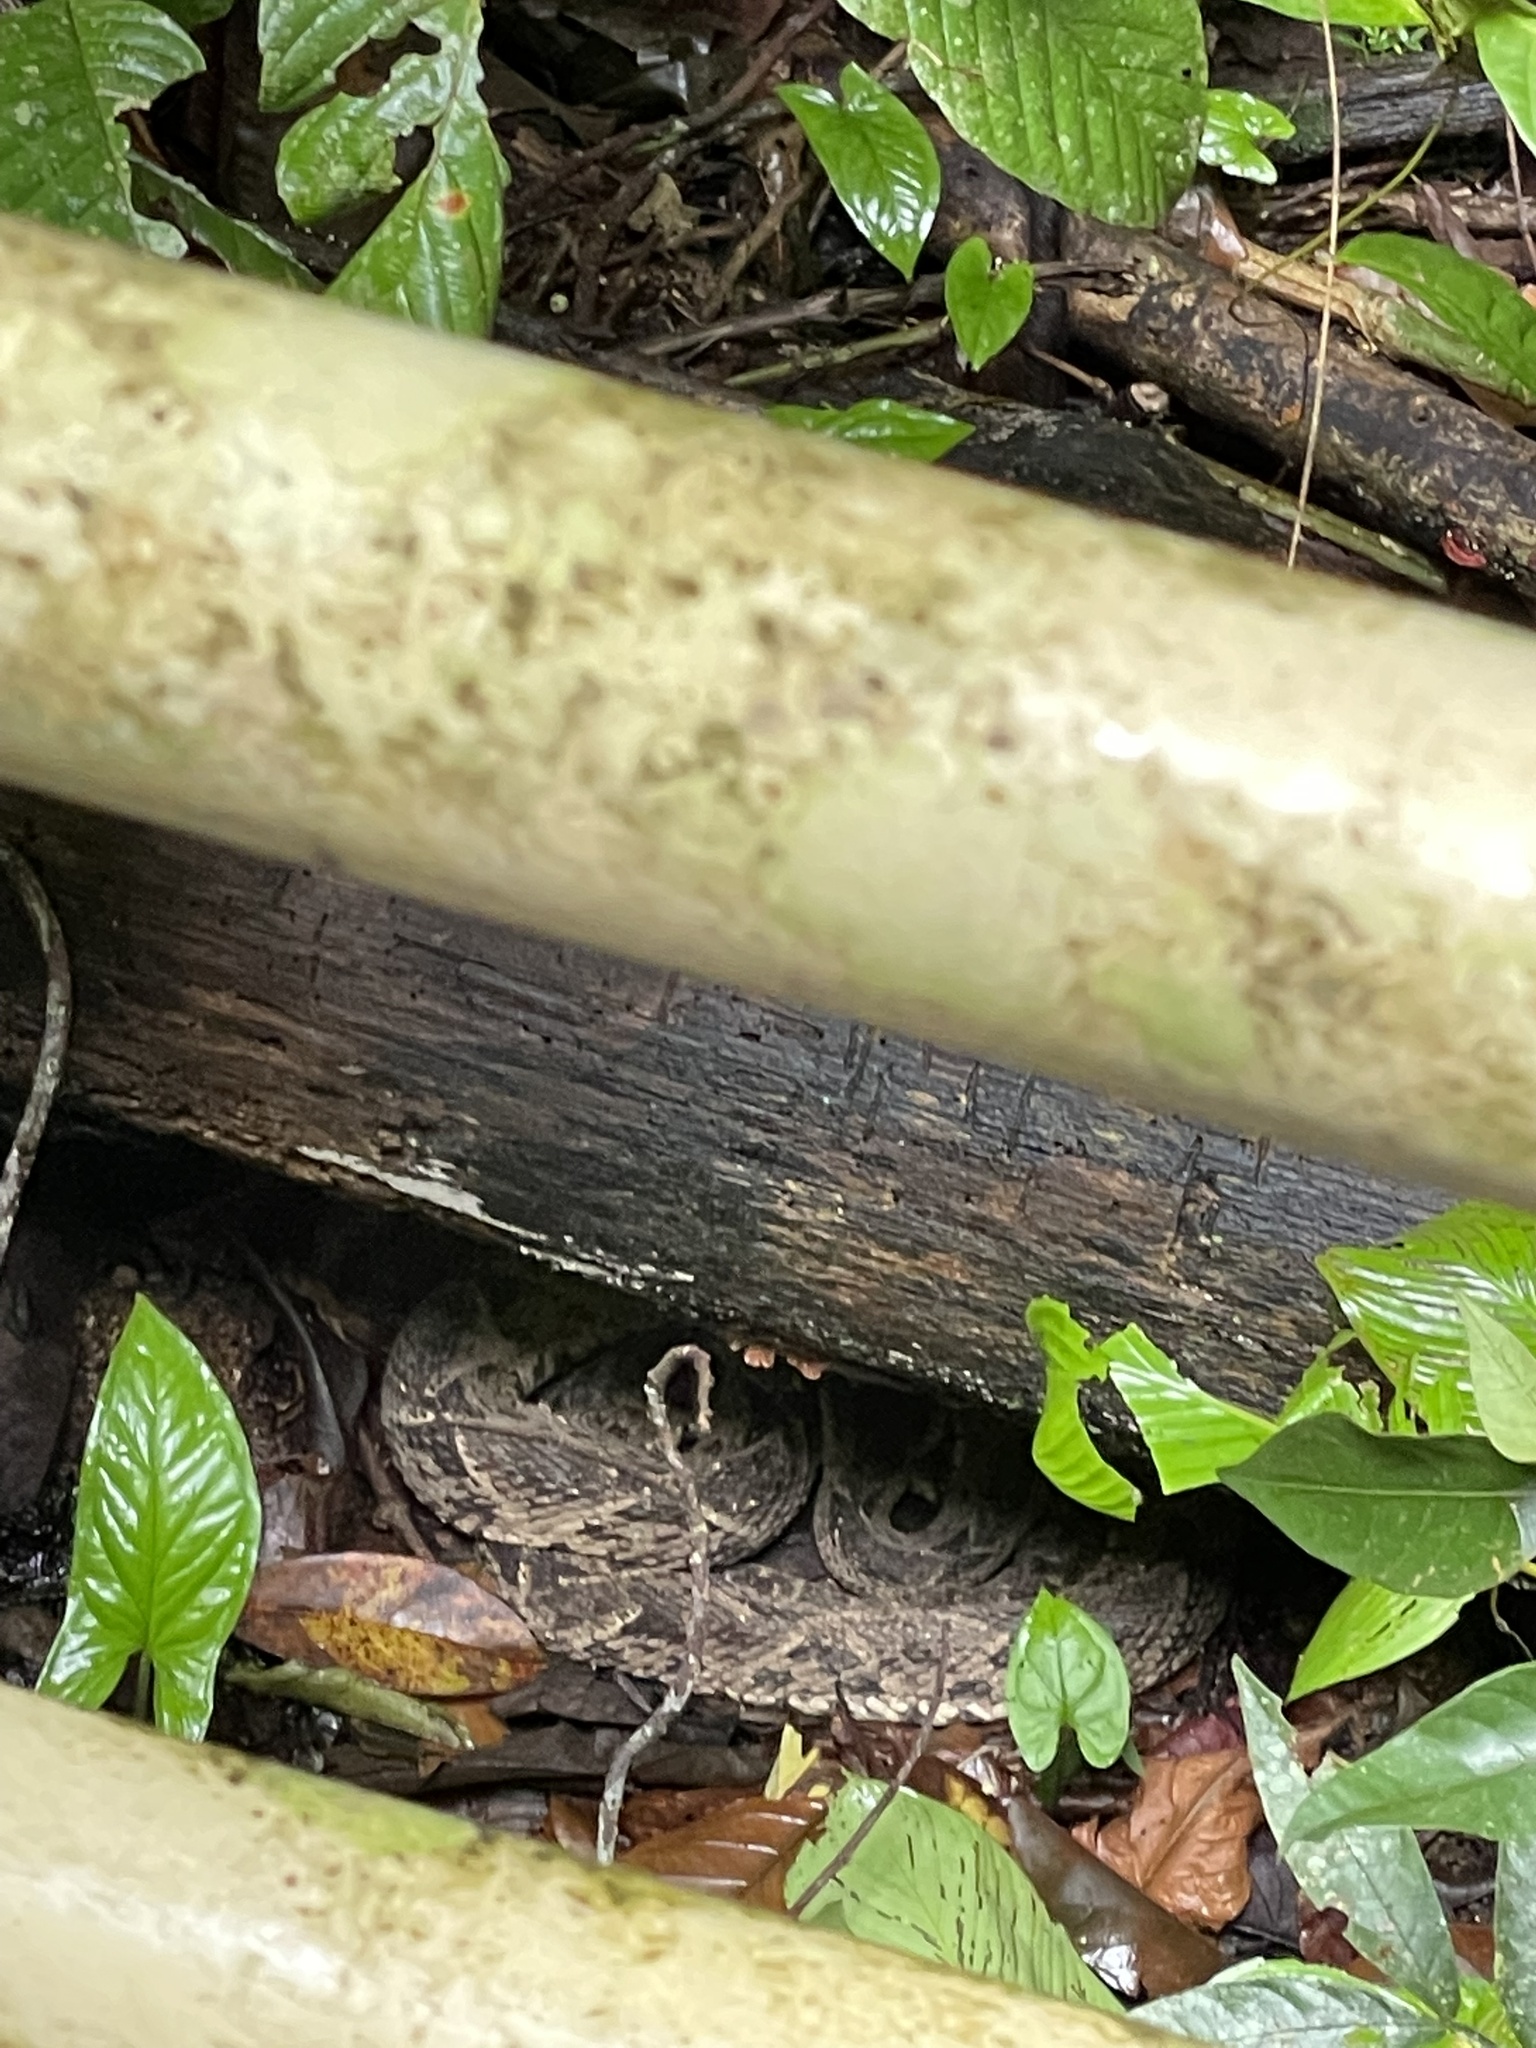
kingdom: Animalia
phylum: Chordata
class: Squamata
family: Viperidae
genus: Bothrops
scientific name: Bothrops asper
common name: Terciopelo
